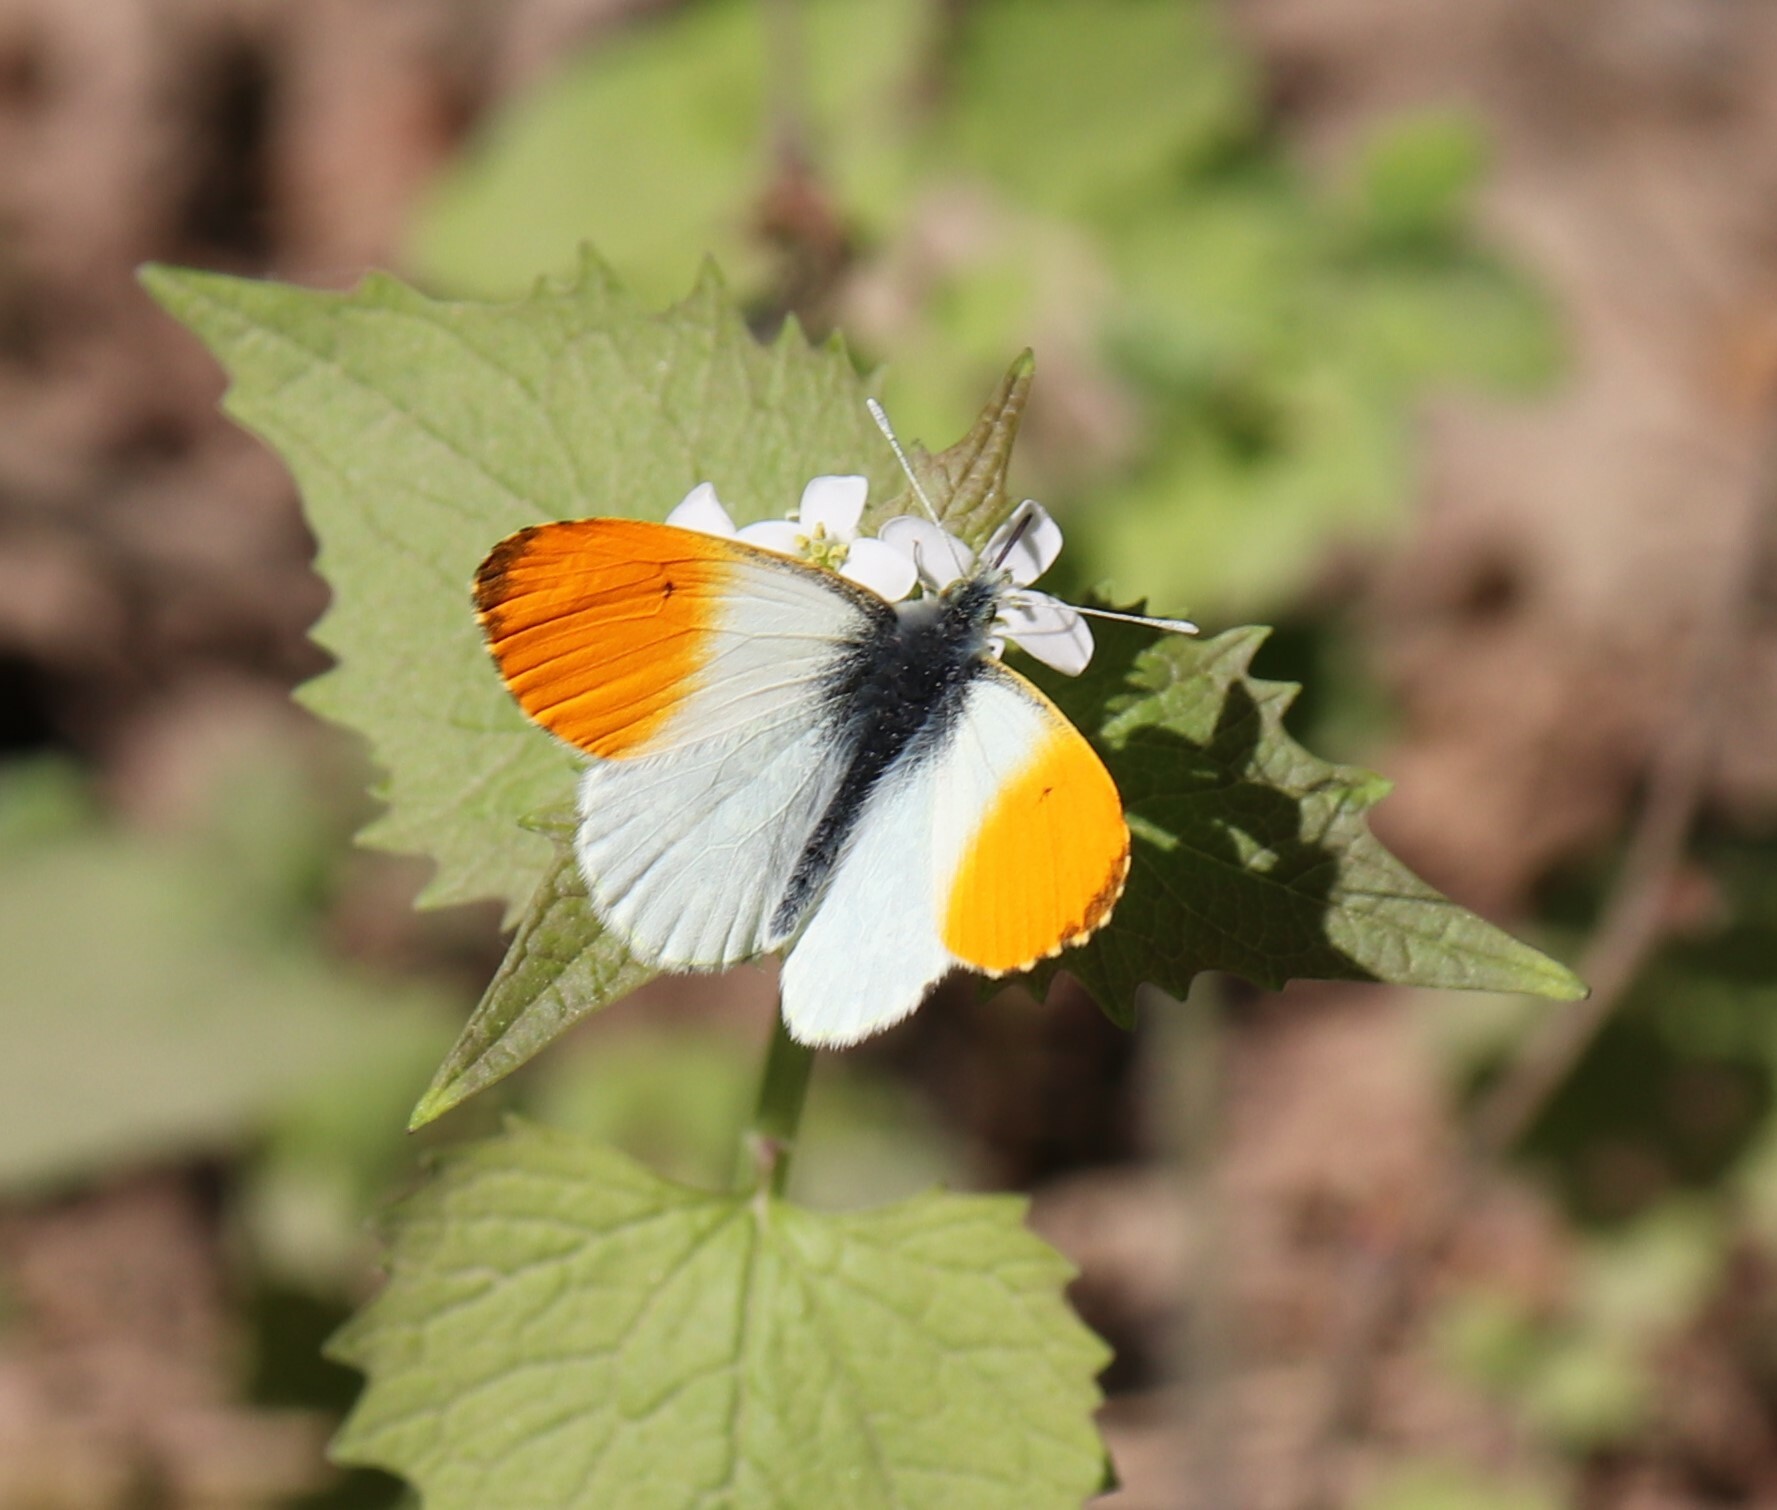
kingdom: Animalia
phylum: Arthropoda
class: Insecta
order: Lepidoptera
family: Pieridae
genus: Anthocharis
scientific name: Anthocharis cardamines
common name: Orange-tip
